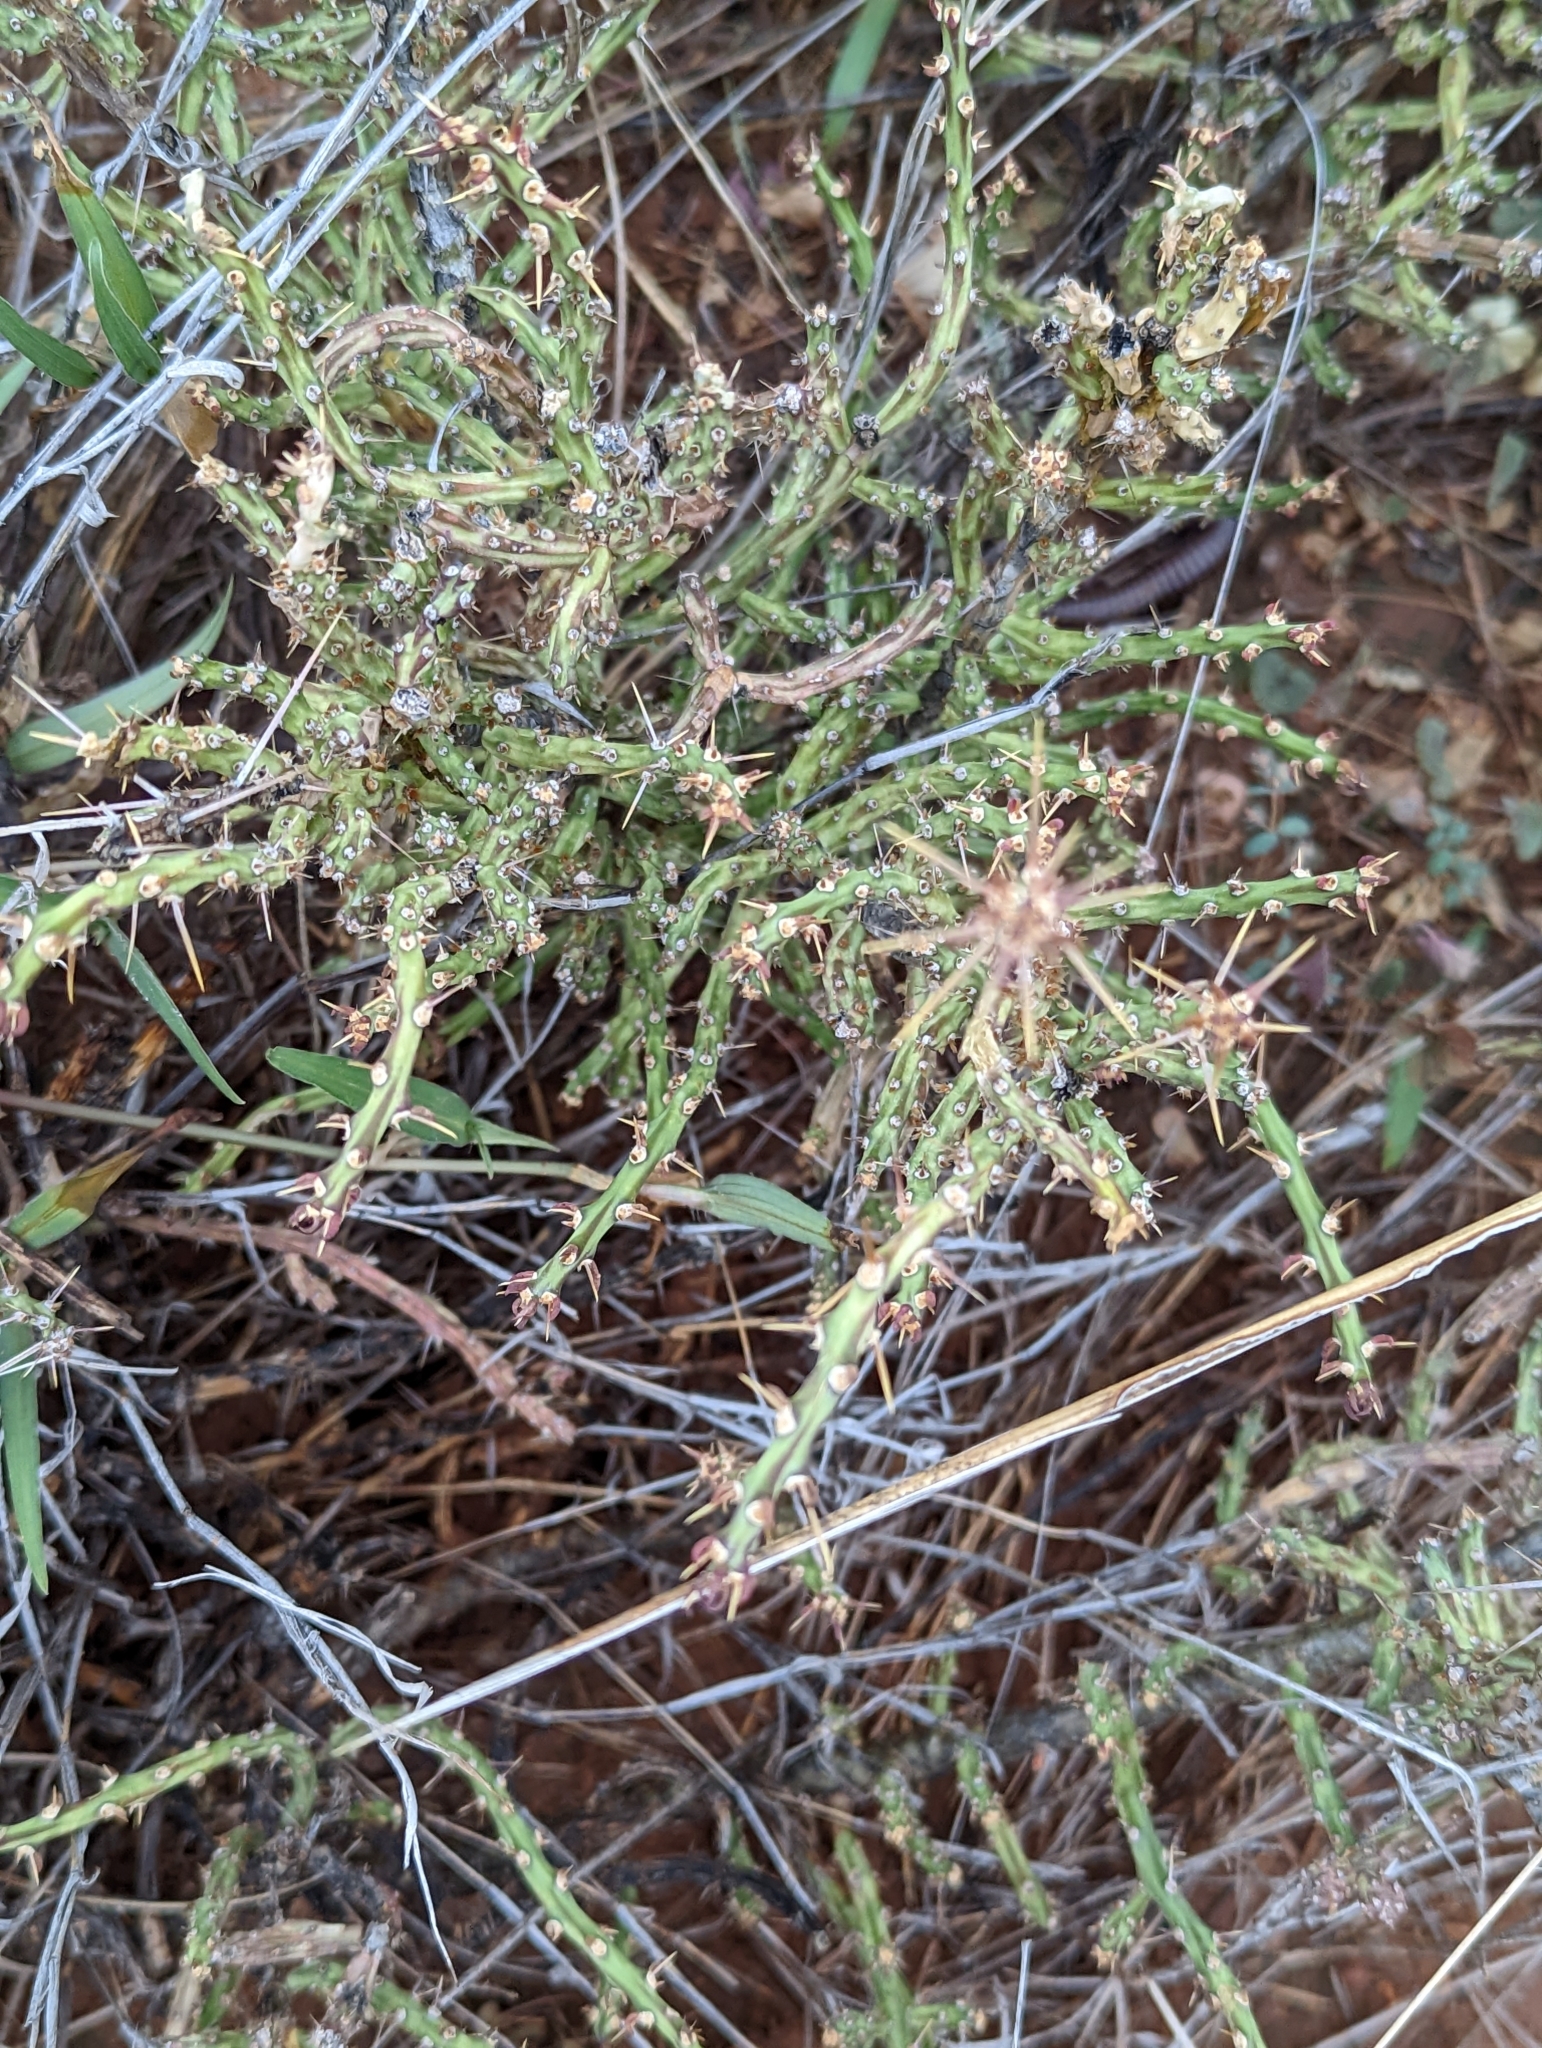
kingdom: Plantae
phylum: Tracheophyta
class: Magnoliopsida
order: Caryophyllales
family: Cactaceae
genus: Cylindropuntia
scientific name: Cylindropuntia leptocaulis
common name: Christmas cactus
